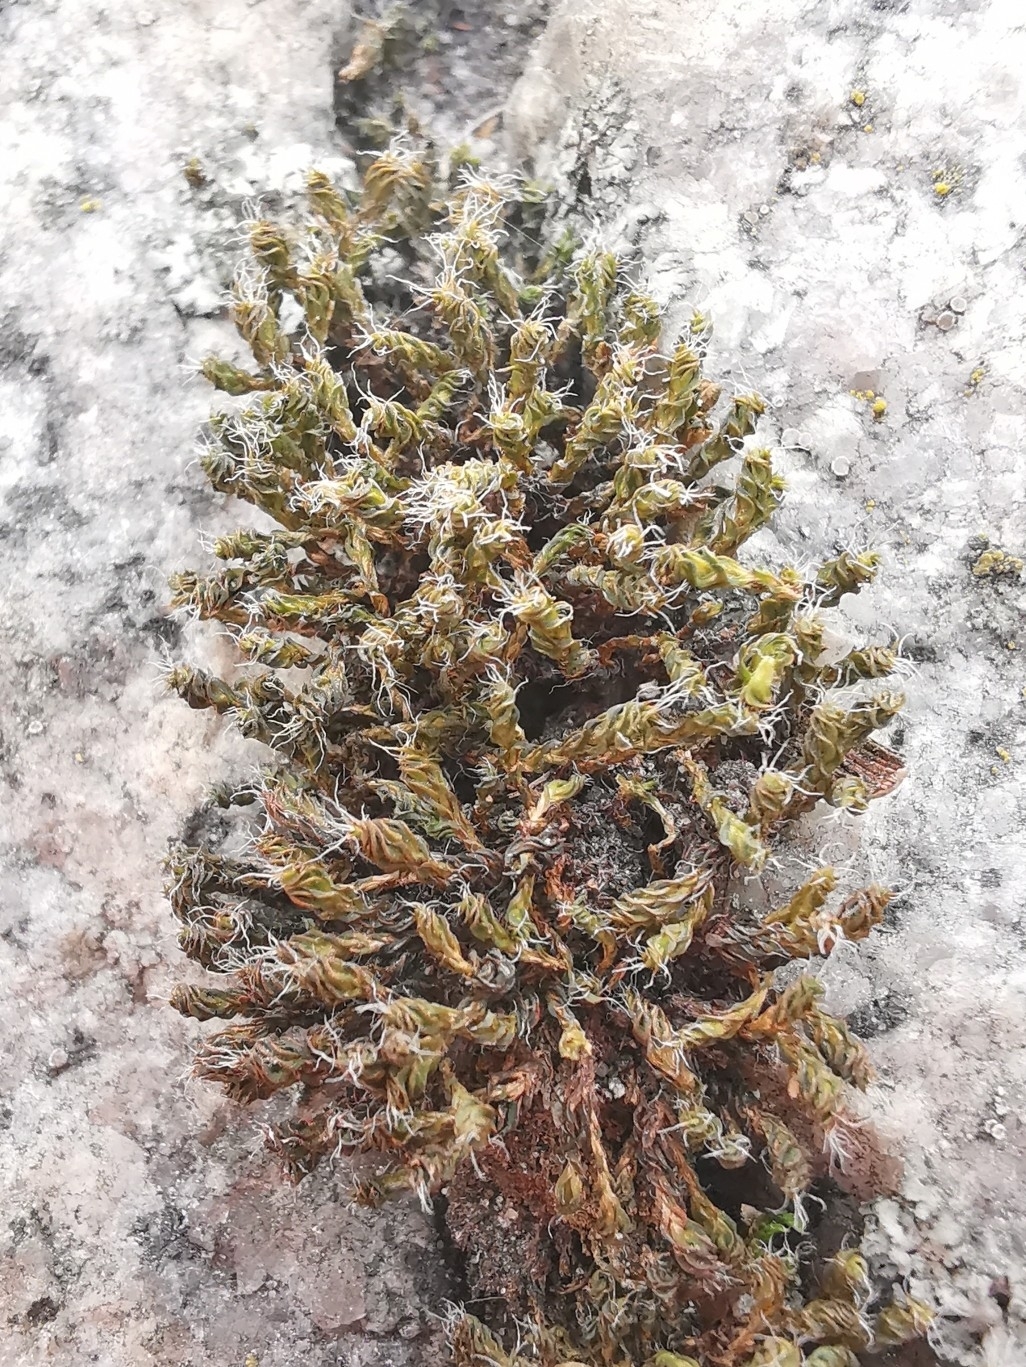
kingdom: Plantae
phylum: Bryophyta
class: Bryopsida
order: Pottiales
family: Pottiaceae
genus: Syntrichia
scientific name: Syntrichia ruralis
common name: Sidewalk screw moss
